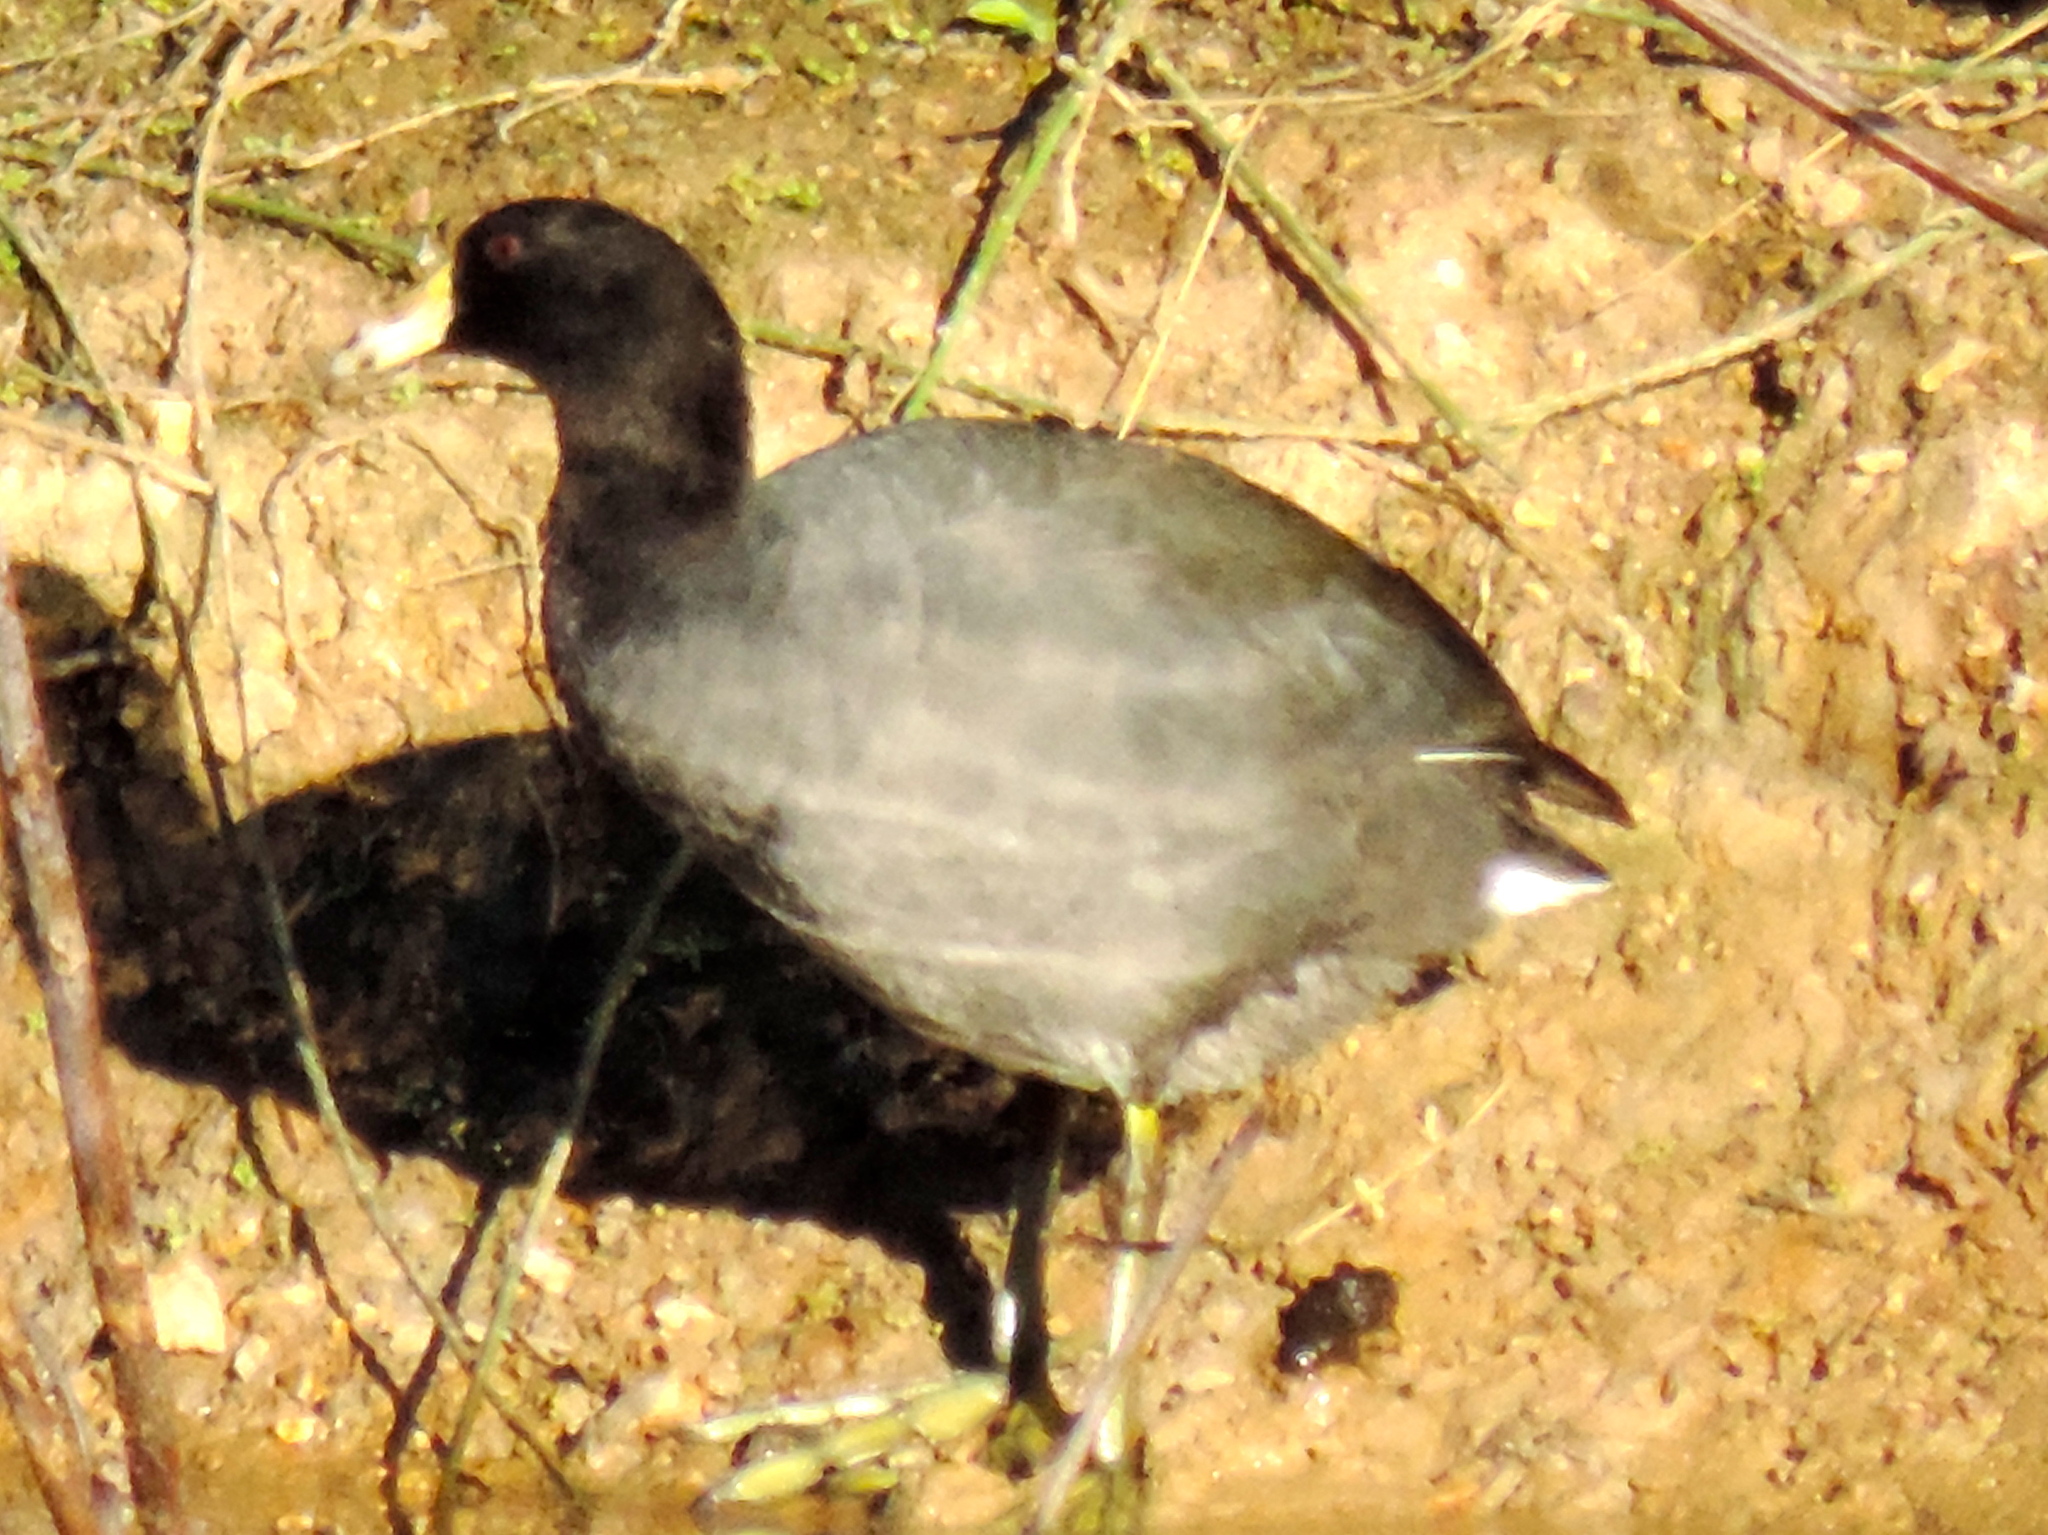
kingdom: Animalia
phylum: Chordata
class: Aves
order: Gruiformes
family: Rallidae
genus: Fulica
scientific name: Fulica americana
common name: American coot
